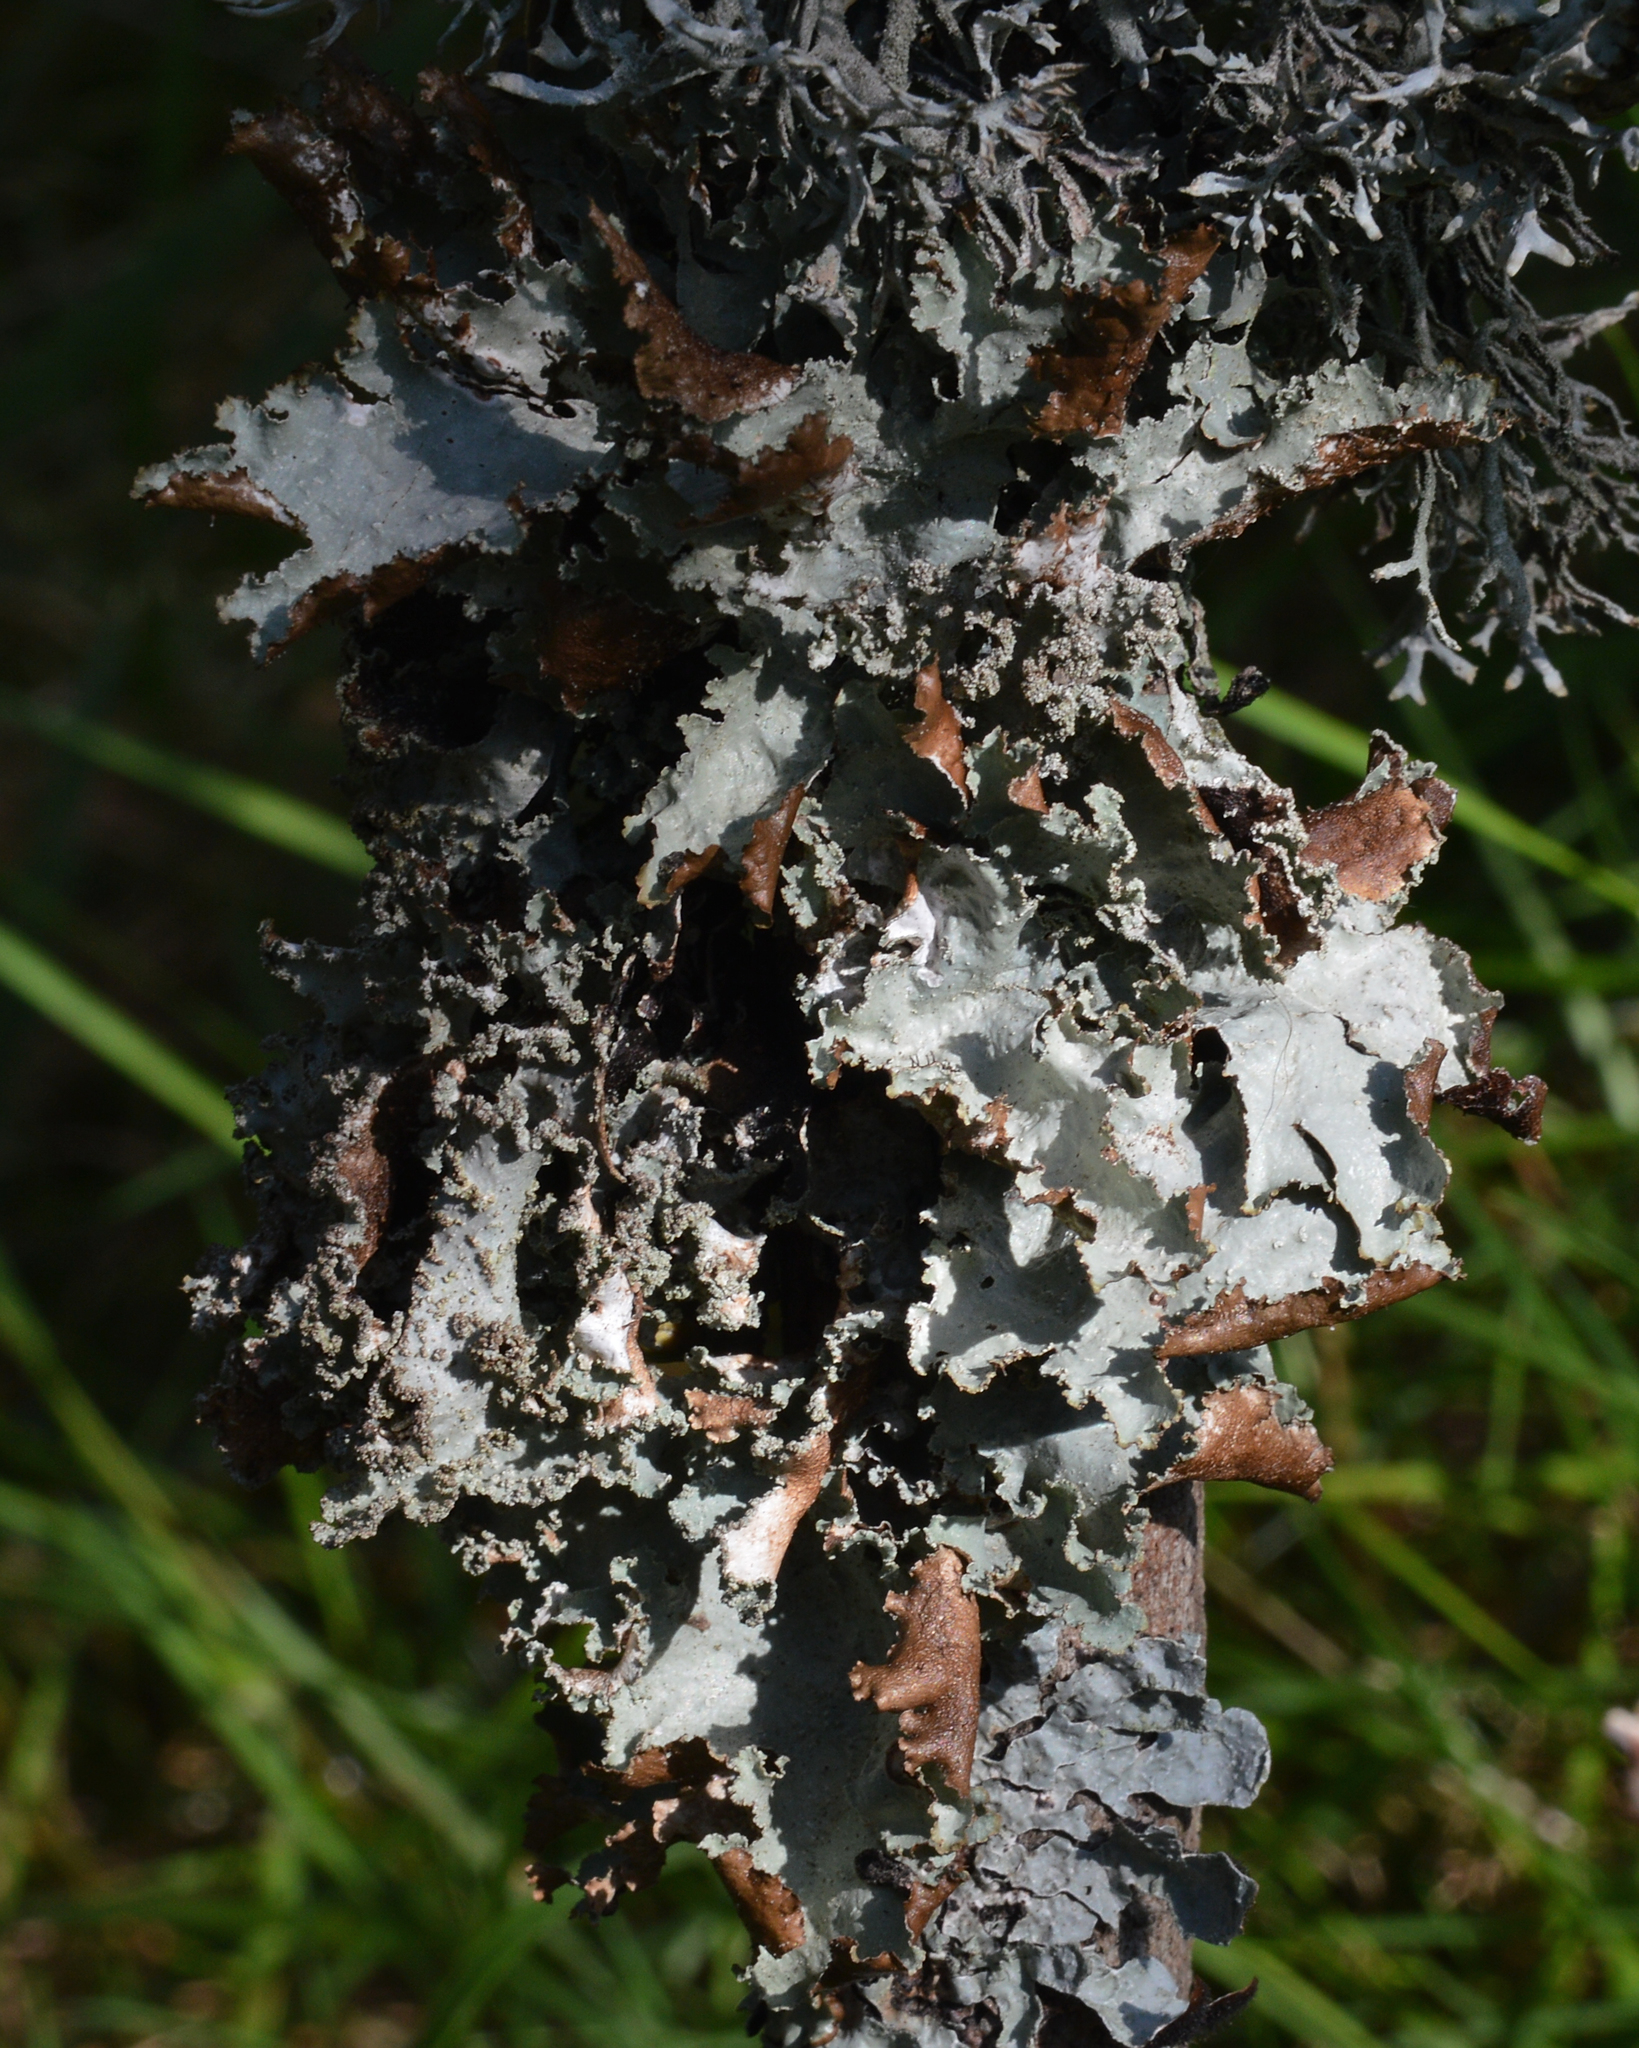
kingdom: Fungi
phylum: Ascomycota
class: Lecanoromycetes
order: Lecanorales
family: Parmeliaceae
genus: Platismatia
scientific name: Platismatia glauca
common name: Varied rag lichen
